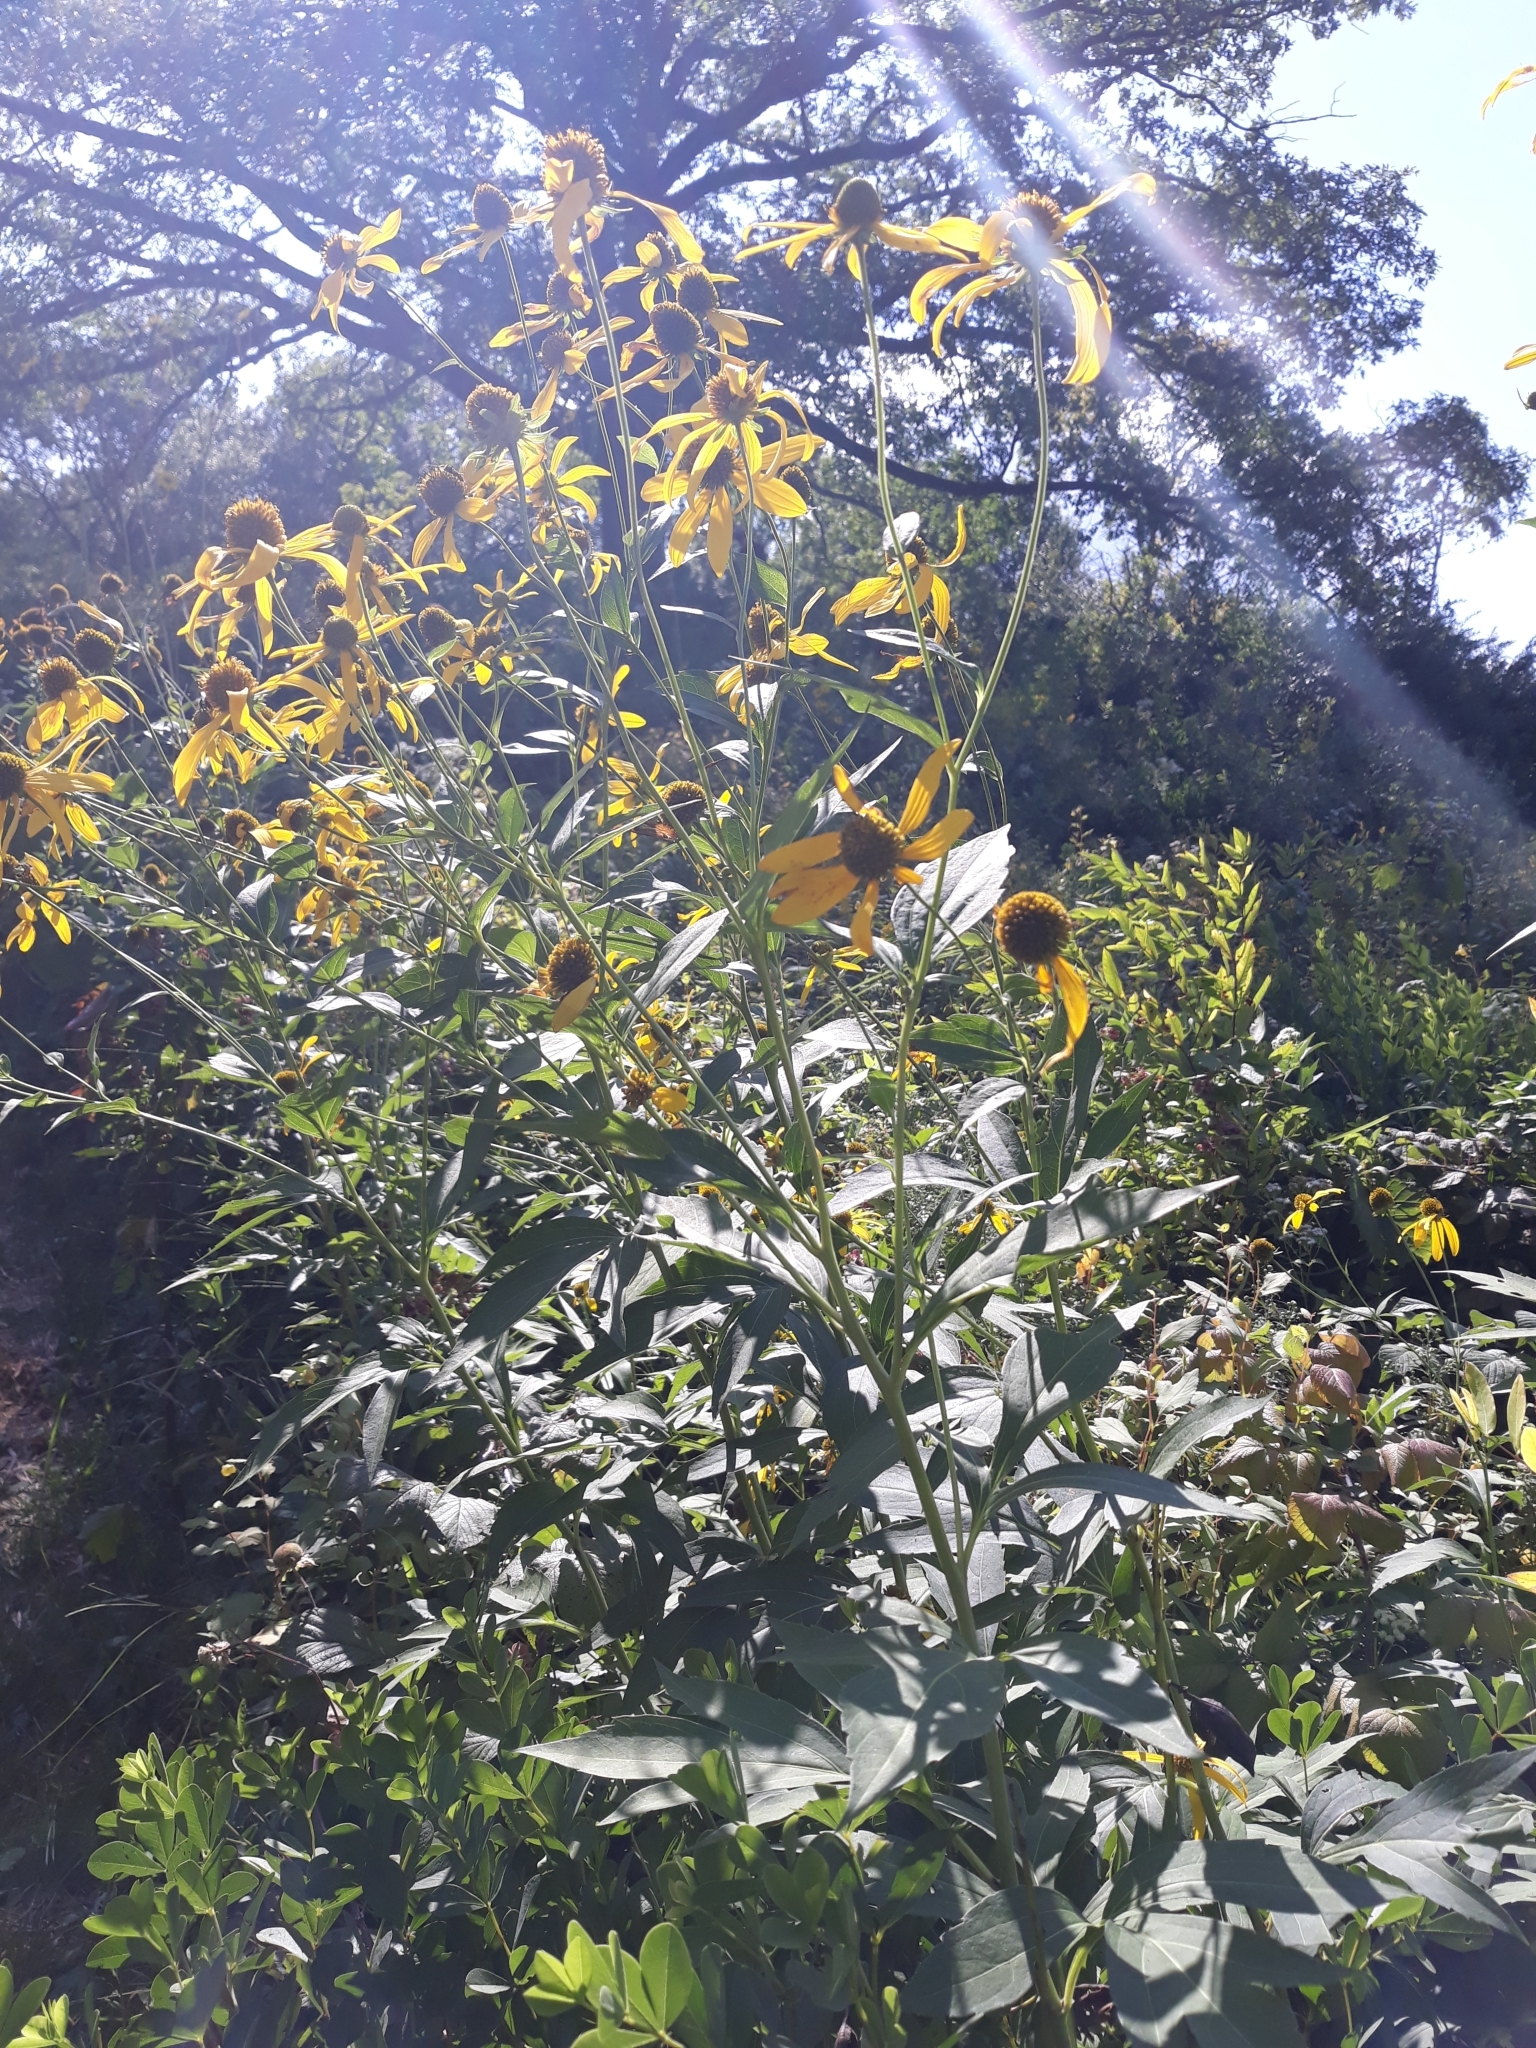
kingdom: Plantae
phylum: Tracheophyta
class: Magnoliopsida
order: Asterales
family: Asteraceae
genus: Rudbeckia
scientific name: Rudbeckia laciniata
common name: Coneflower
